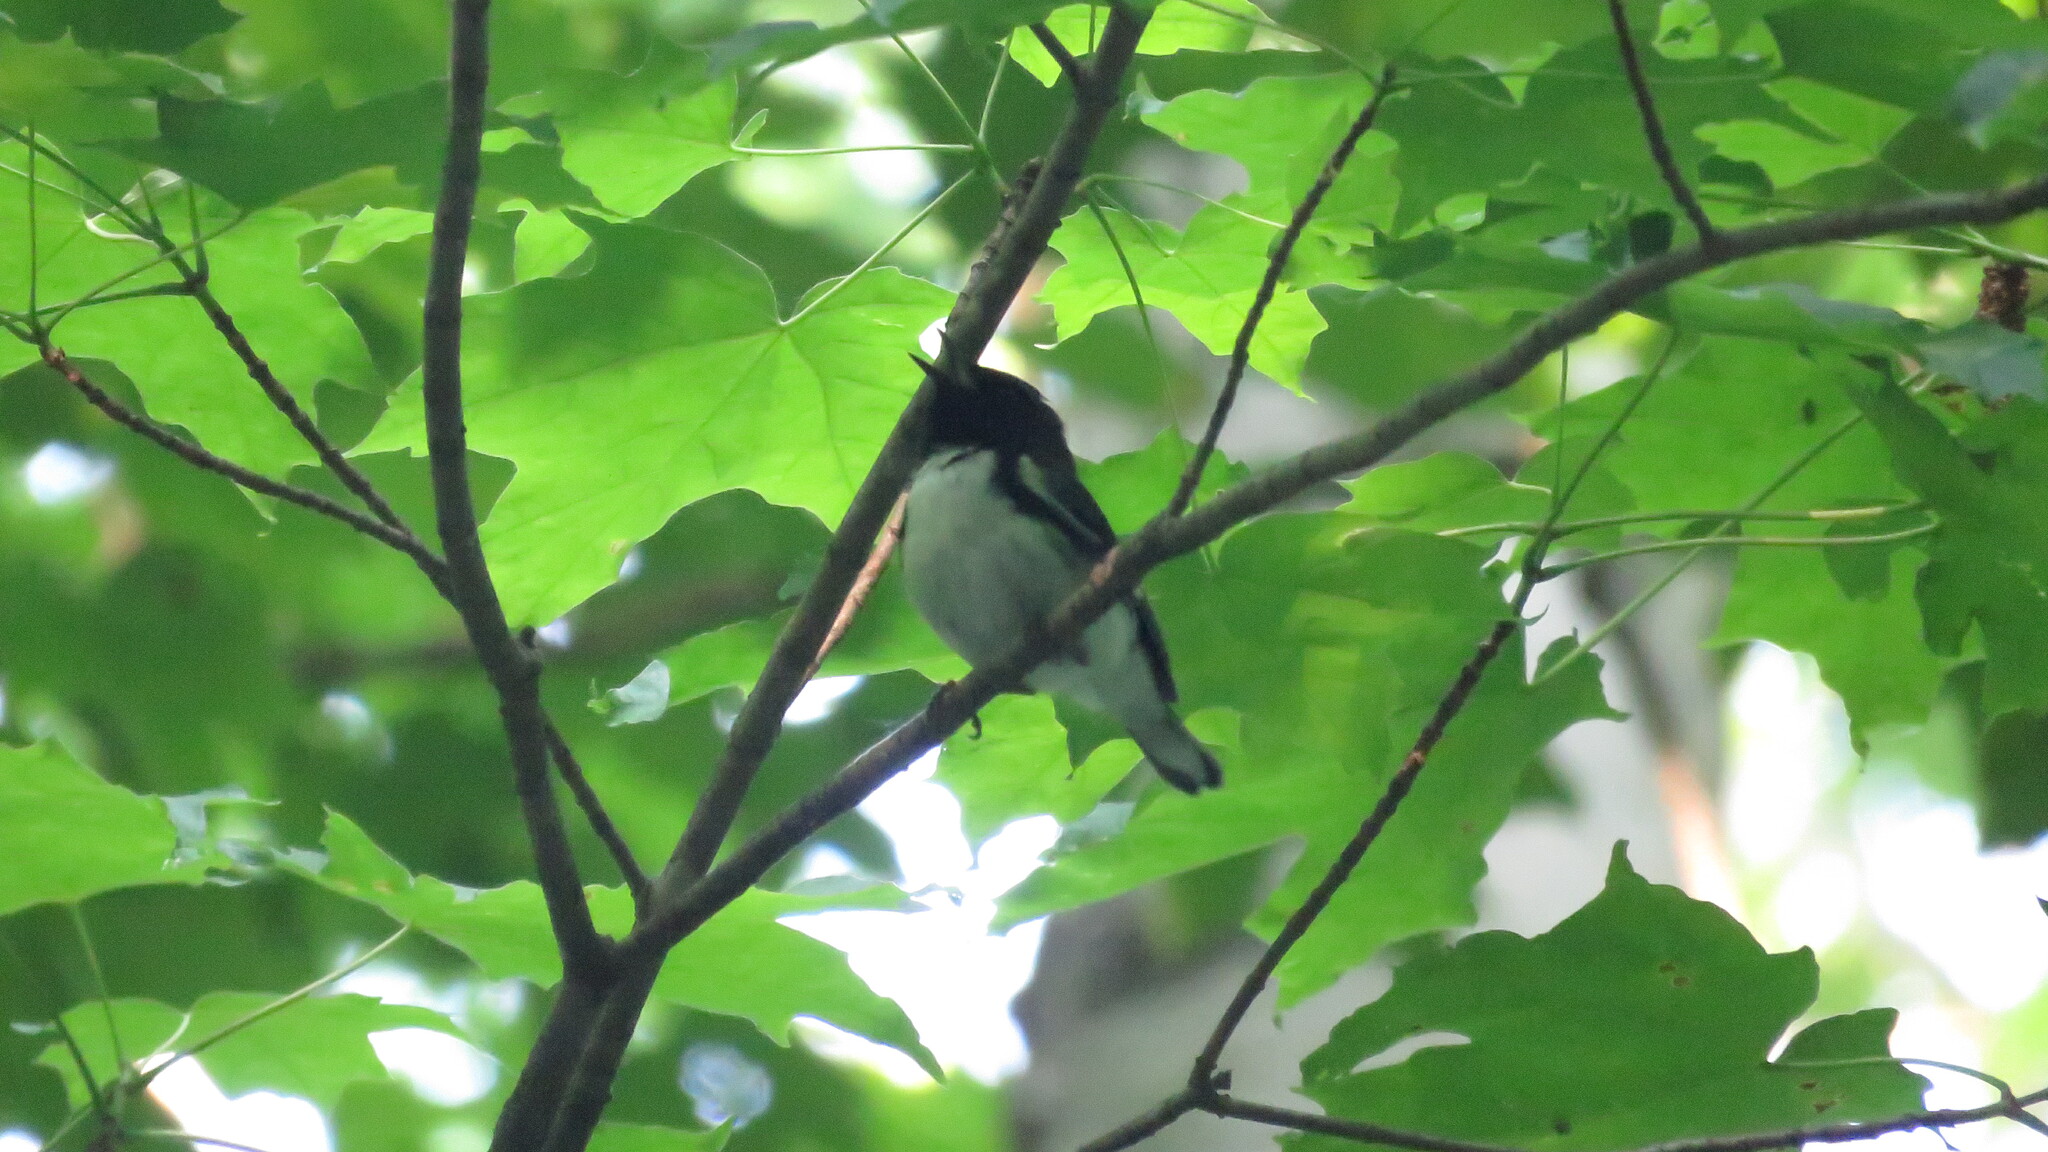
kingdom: Animalia
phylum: Chordata
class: Aves
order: Passeriformes
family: Parulidae
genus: Setophaga
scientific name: Setophaga caerulescens
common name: Black-throated blue warbler
